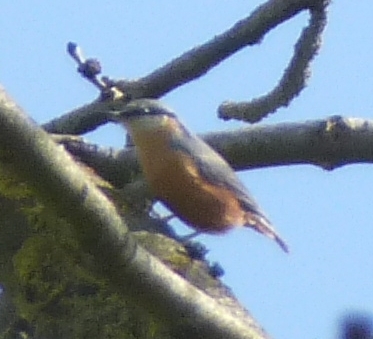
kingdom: Animalia
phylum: Chordata
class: Aves
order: Passeriformes
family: Sittidae
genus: Sitta
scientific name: Sitta europaea
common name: Eurasian nuthatch
